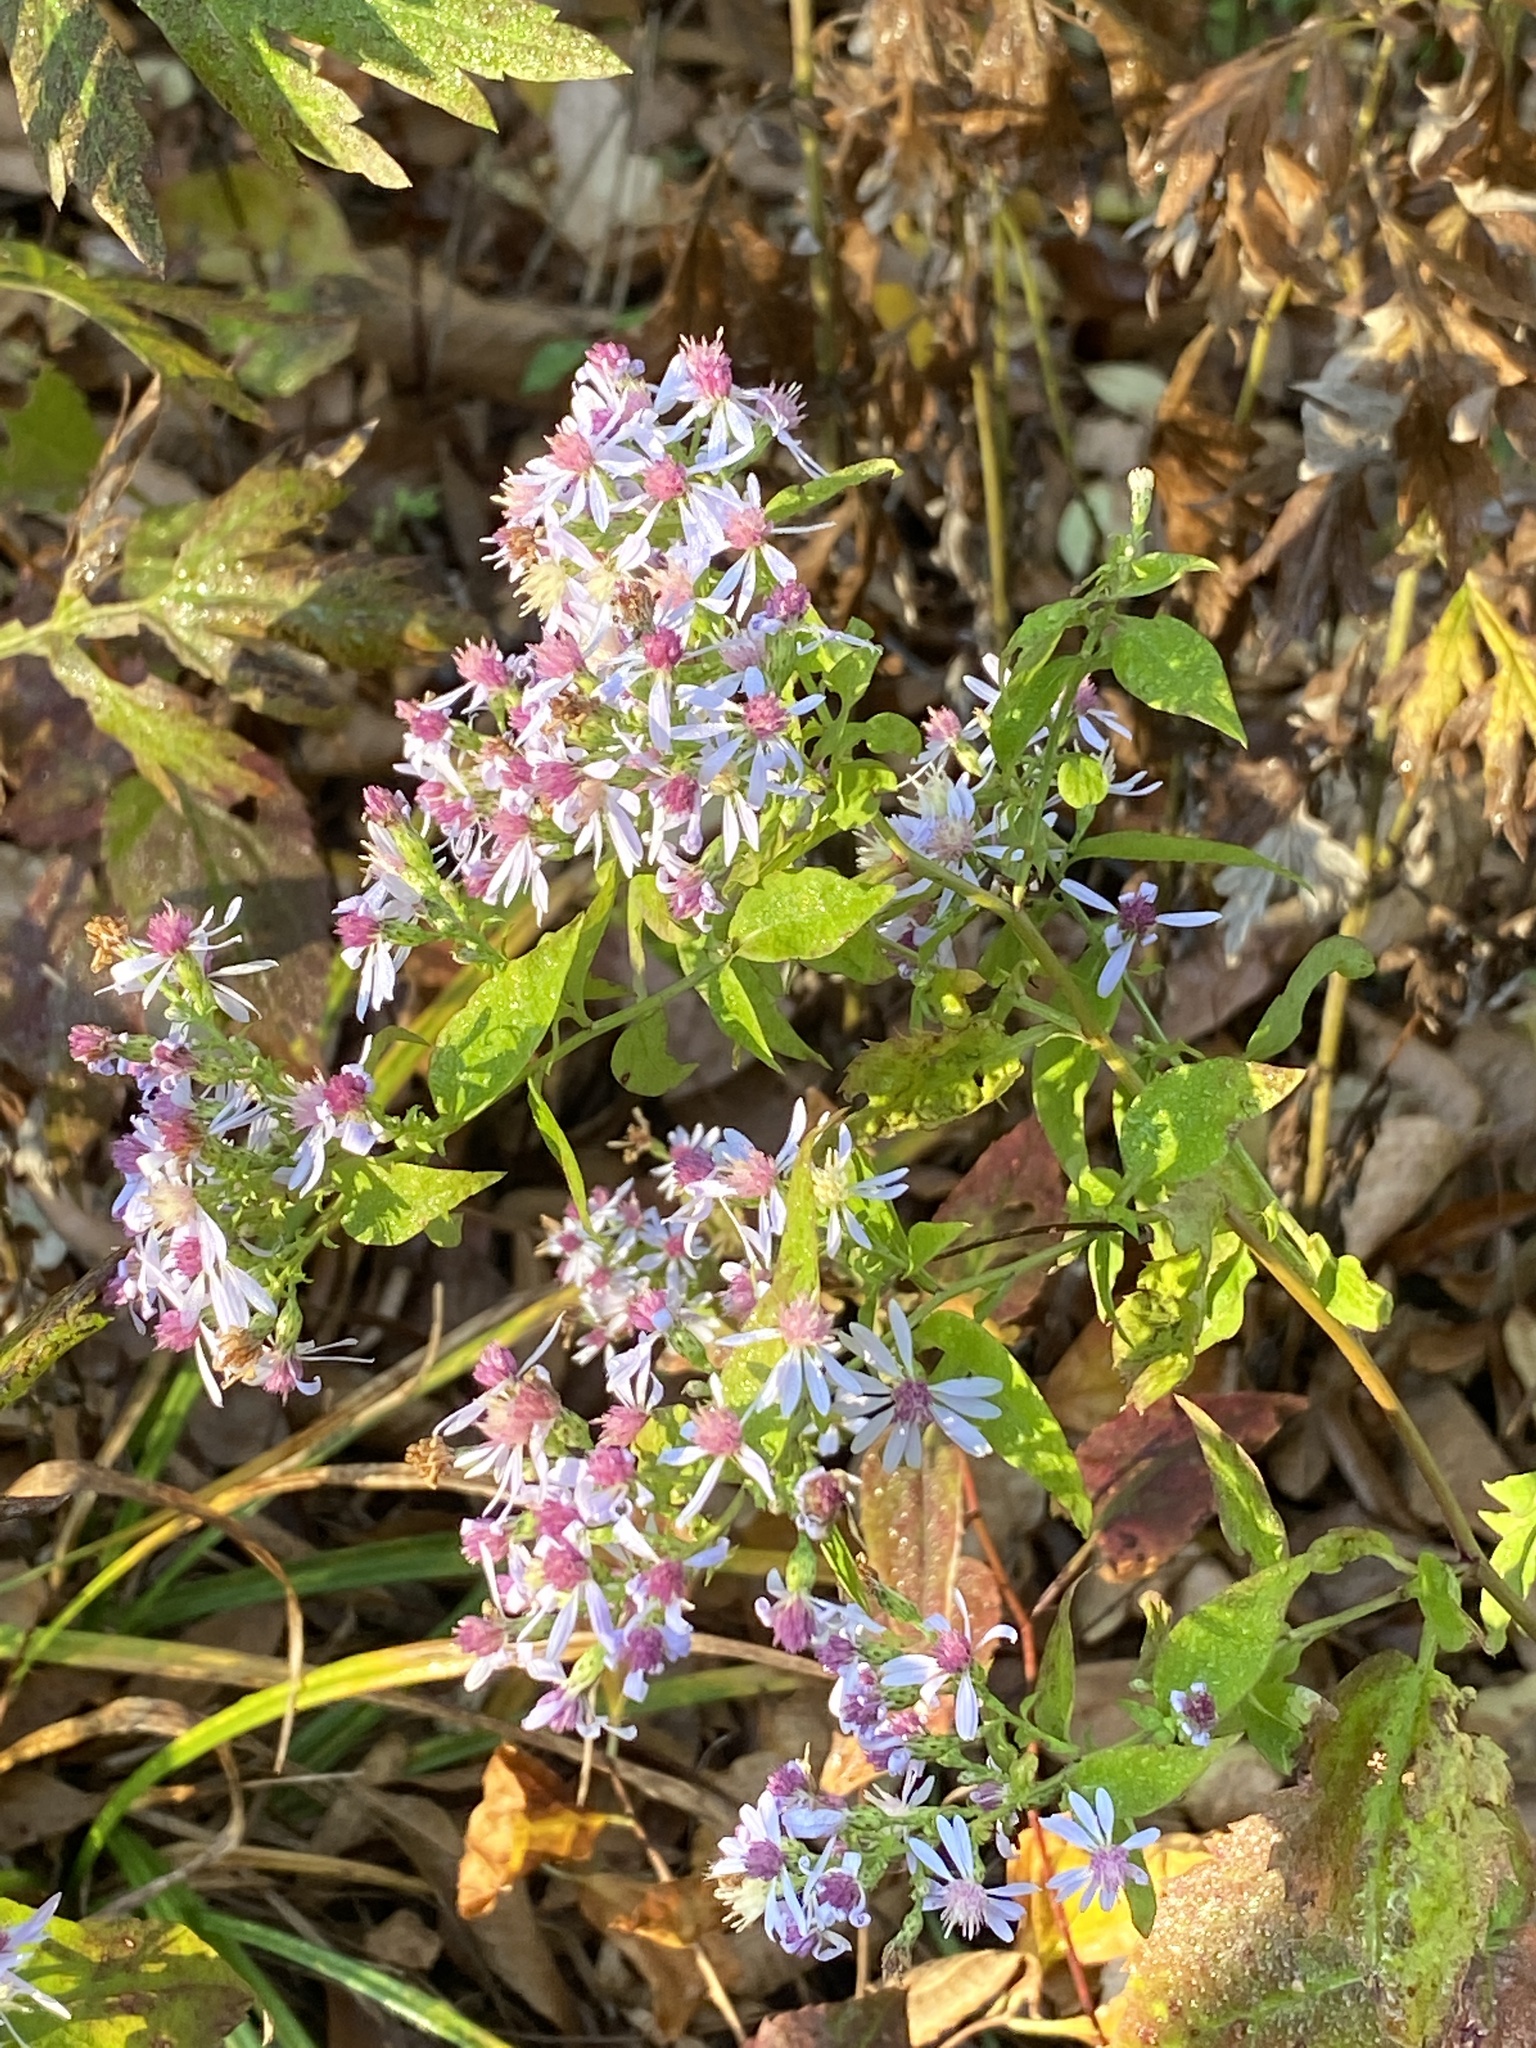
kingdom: Plantae
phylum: Tracheophyta
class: Magnoliopsida
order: Asterales
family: Asteraceae
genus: Symphyotrichum
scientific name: Symphyotrichum cordifolium
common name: Beeweed
